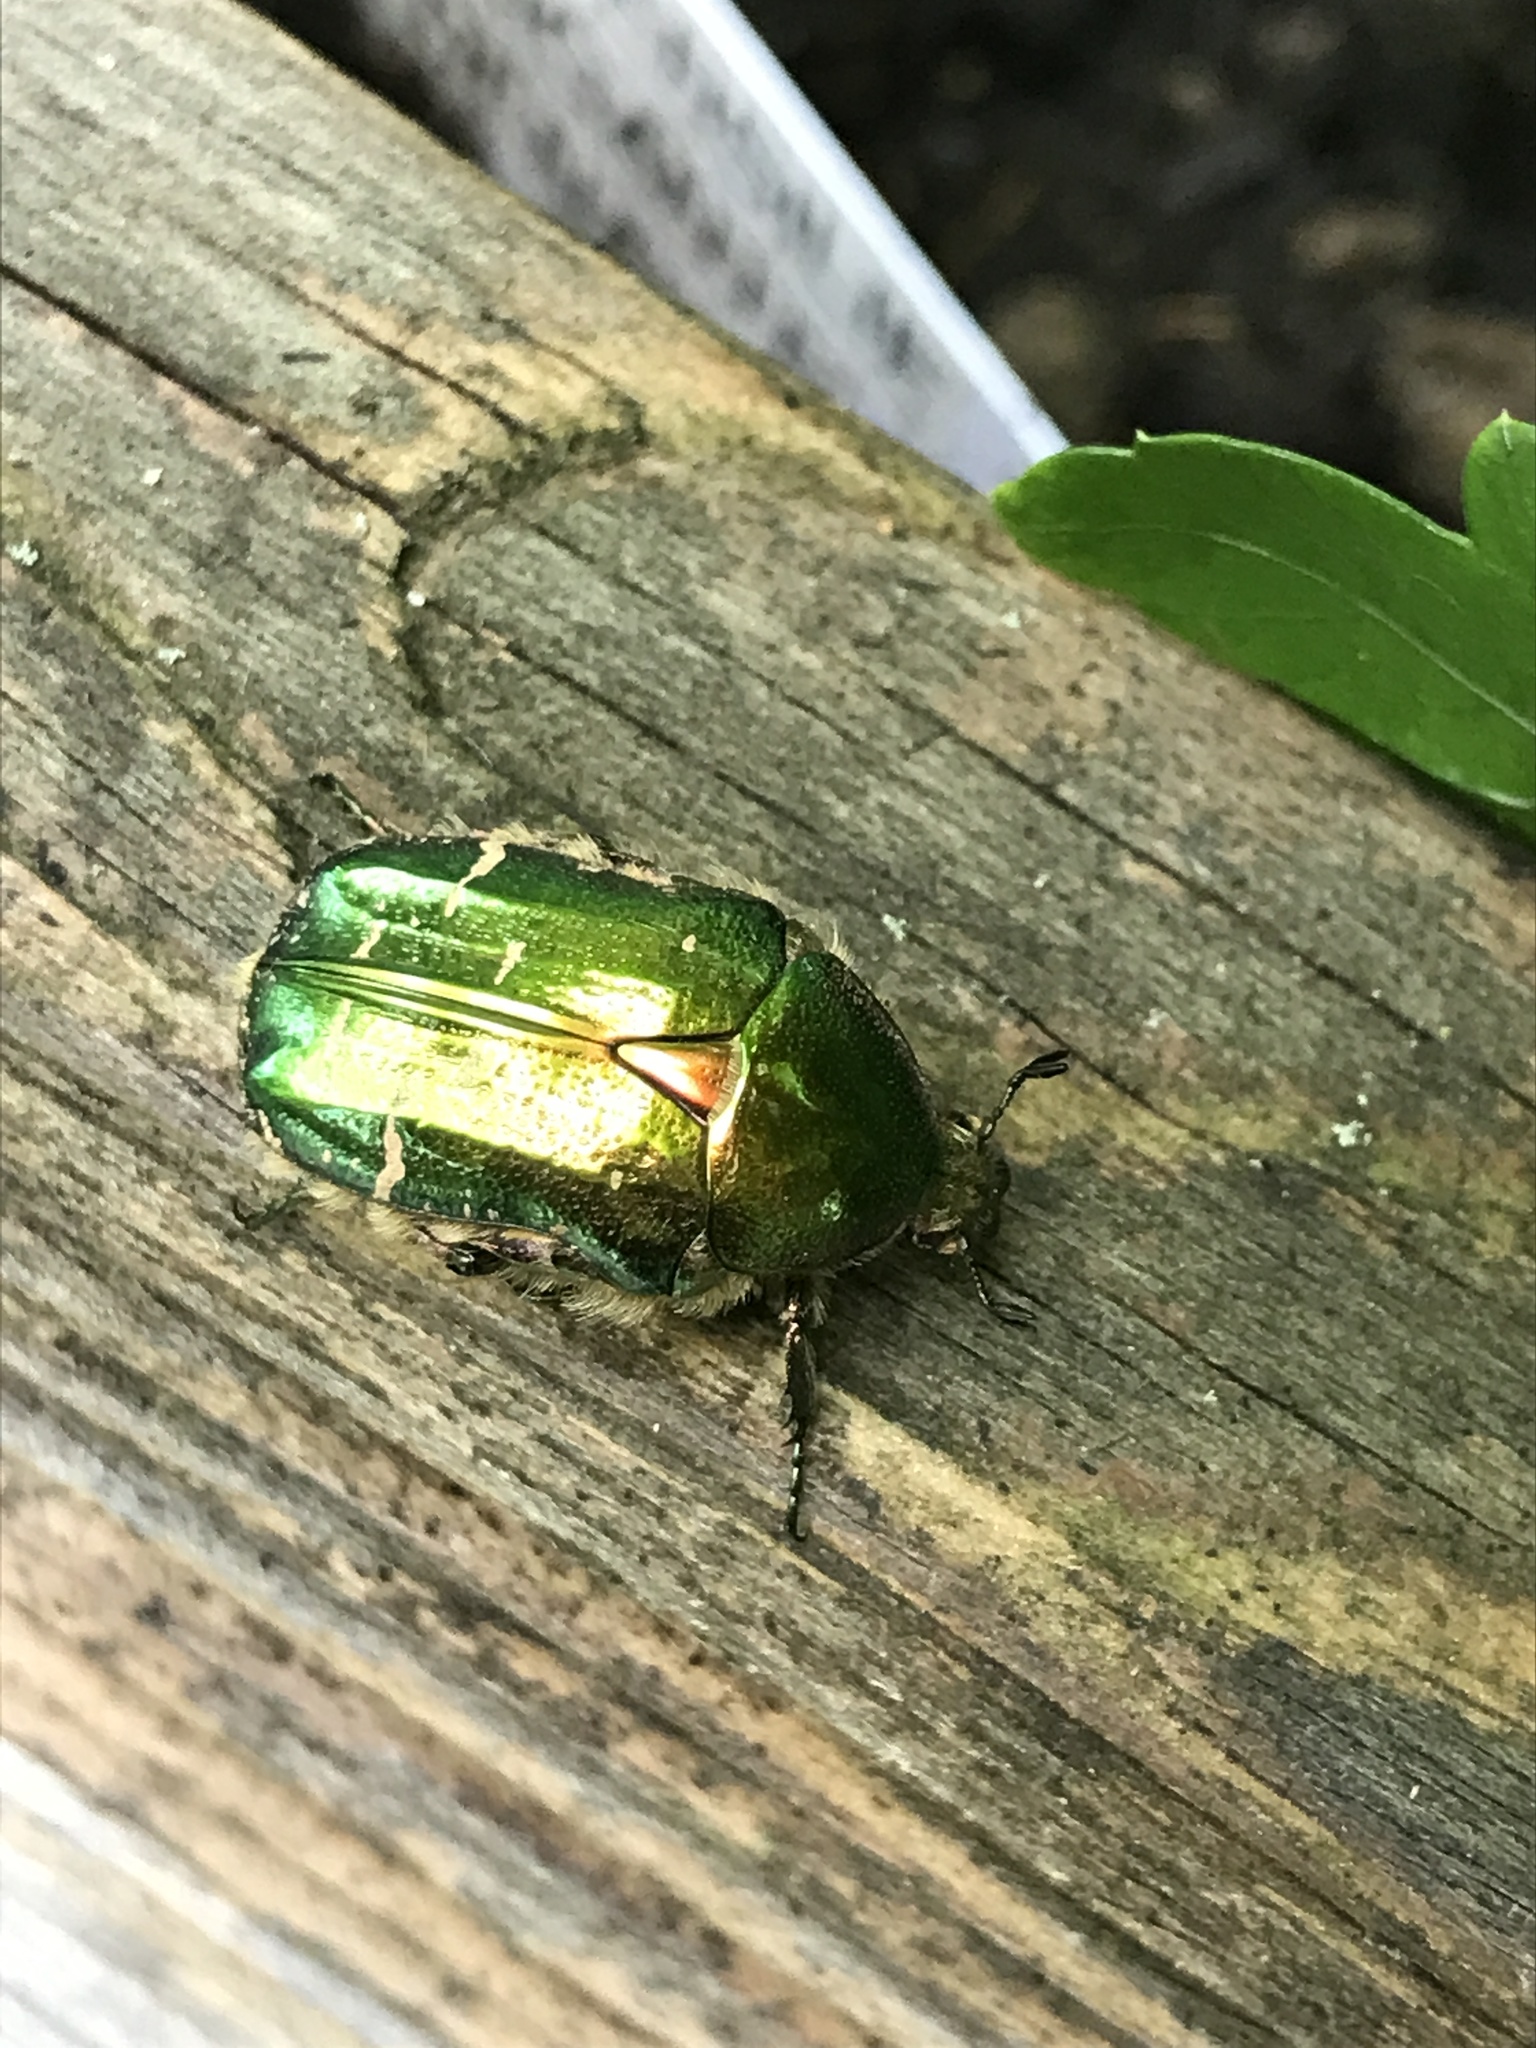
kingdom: Animalia
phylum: Arthropoda
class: Insecta
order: Coleoptera
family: Scarabaeidae
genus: Cetonia
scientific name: Cetonia aurata
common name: Rose chafer
